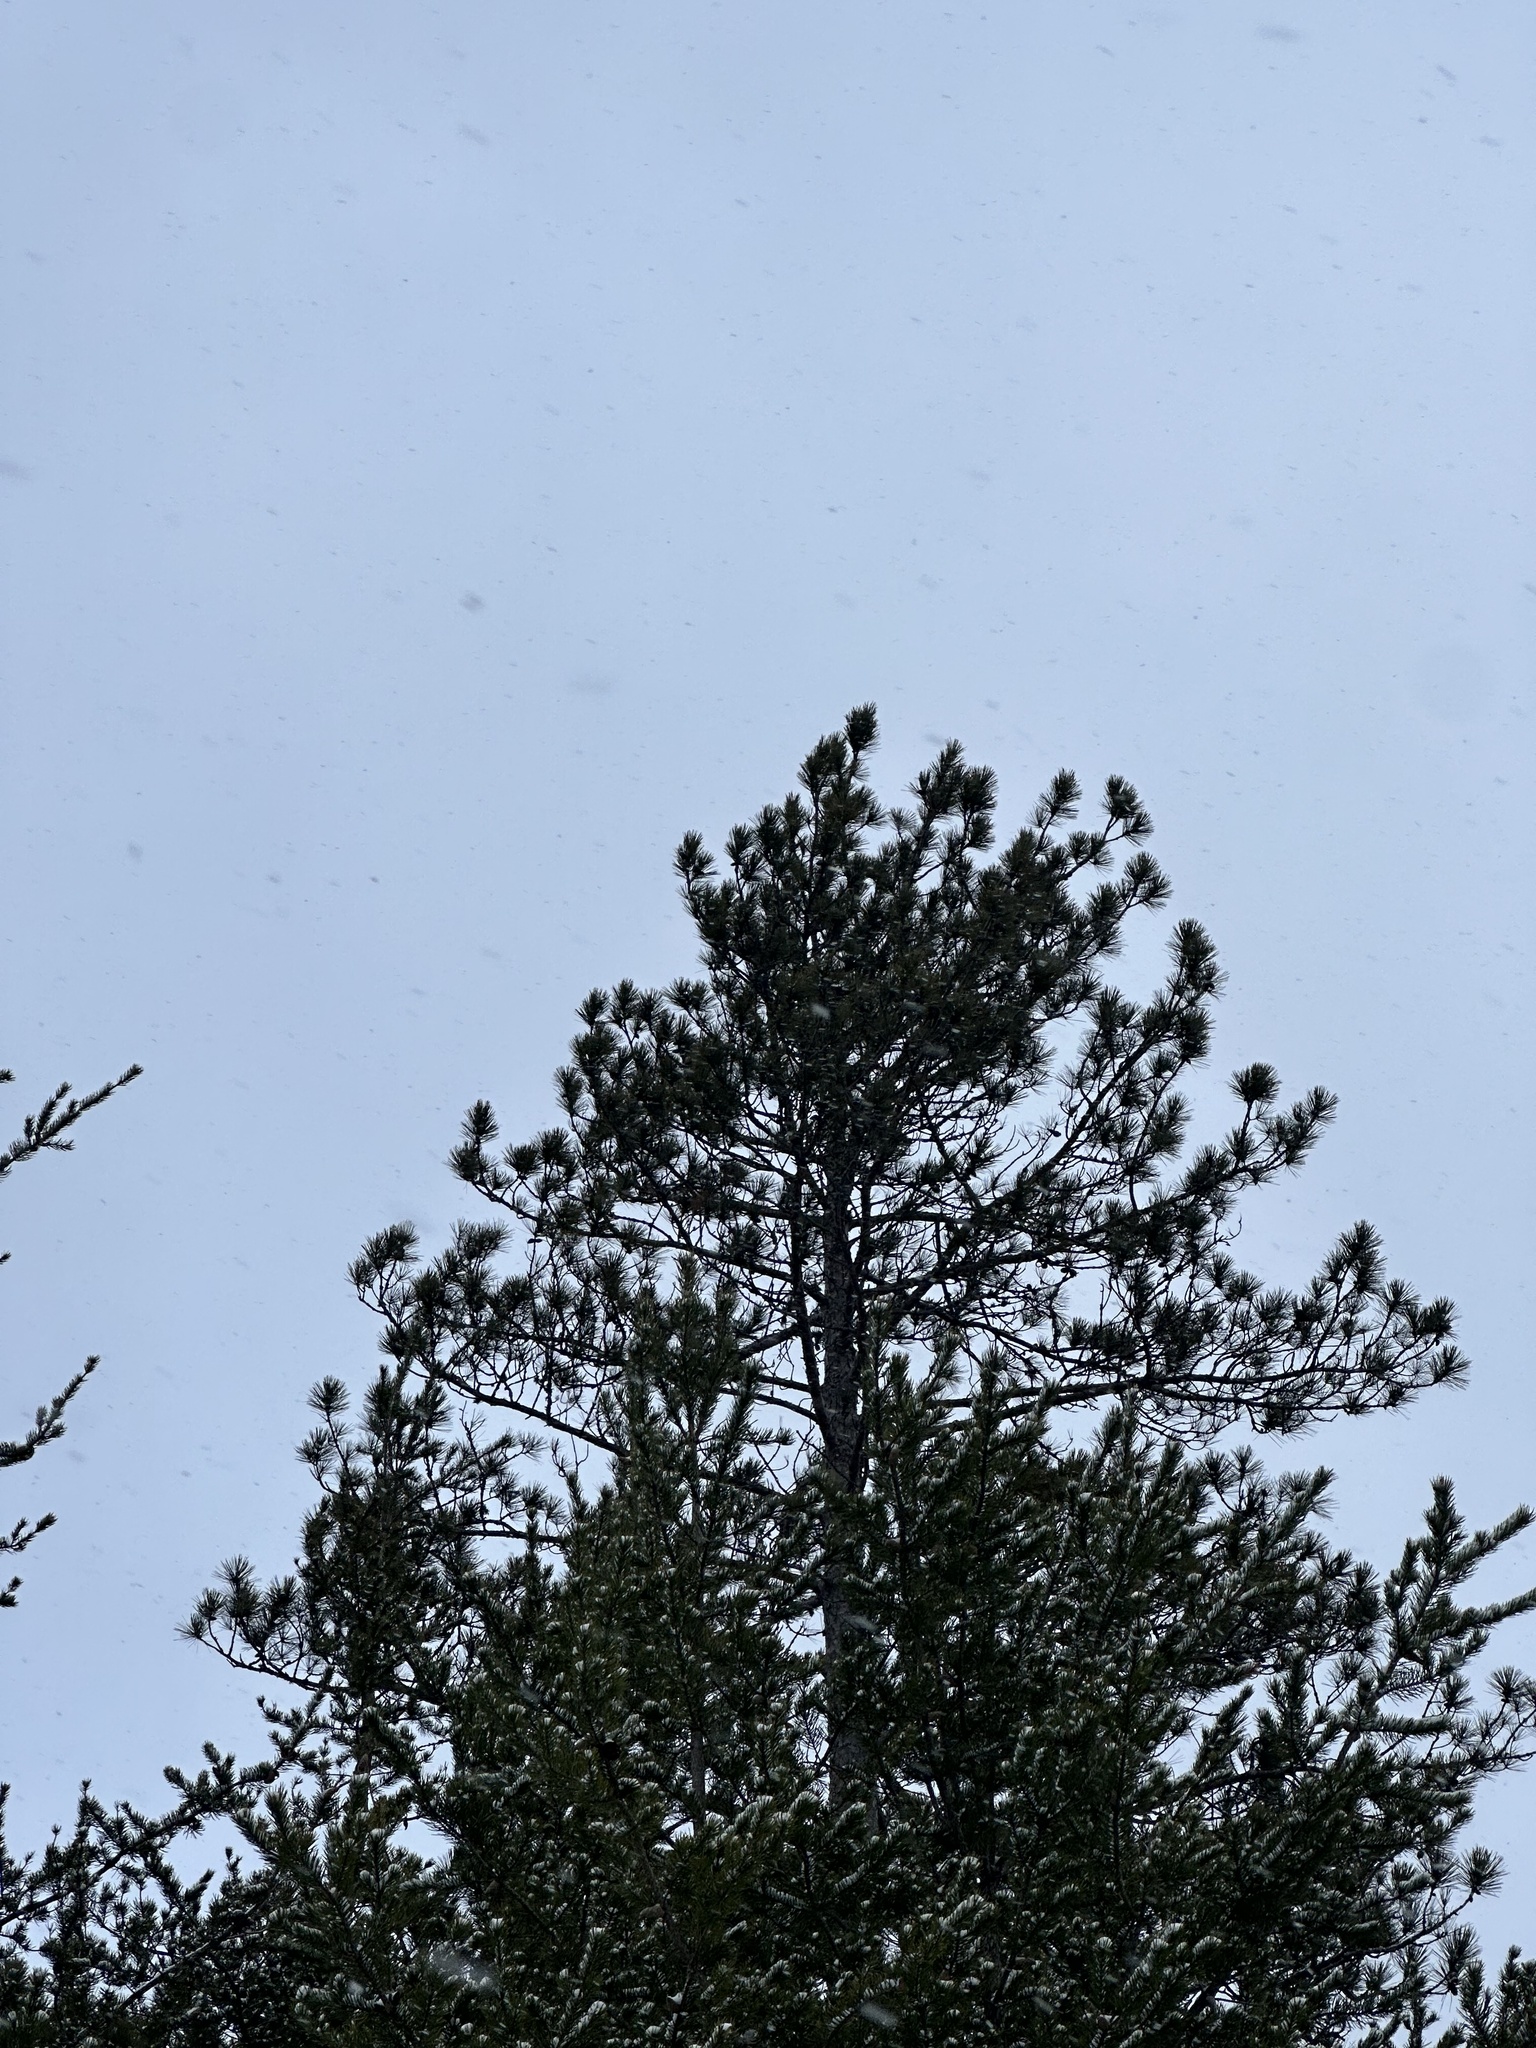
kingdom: Plantae
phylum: Tracheophyta
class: Pinopsida
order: Pinales
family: Pinaceae
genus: Pinus
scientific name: Pinus resinosa
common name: Norway pine
